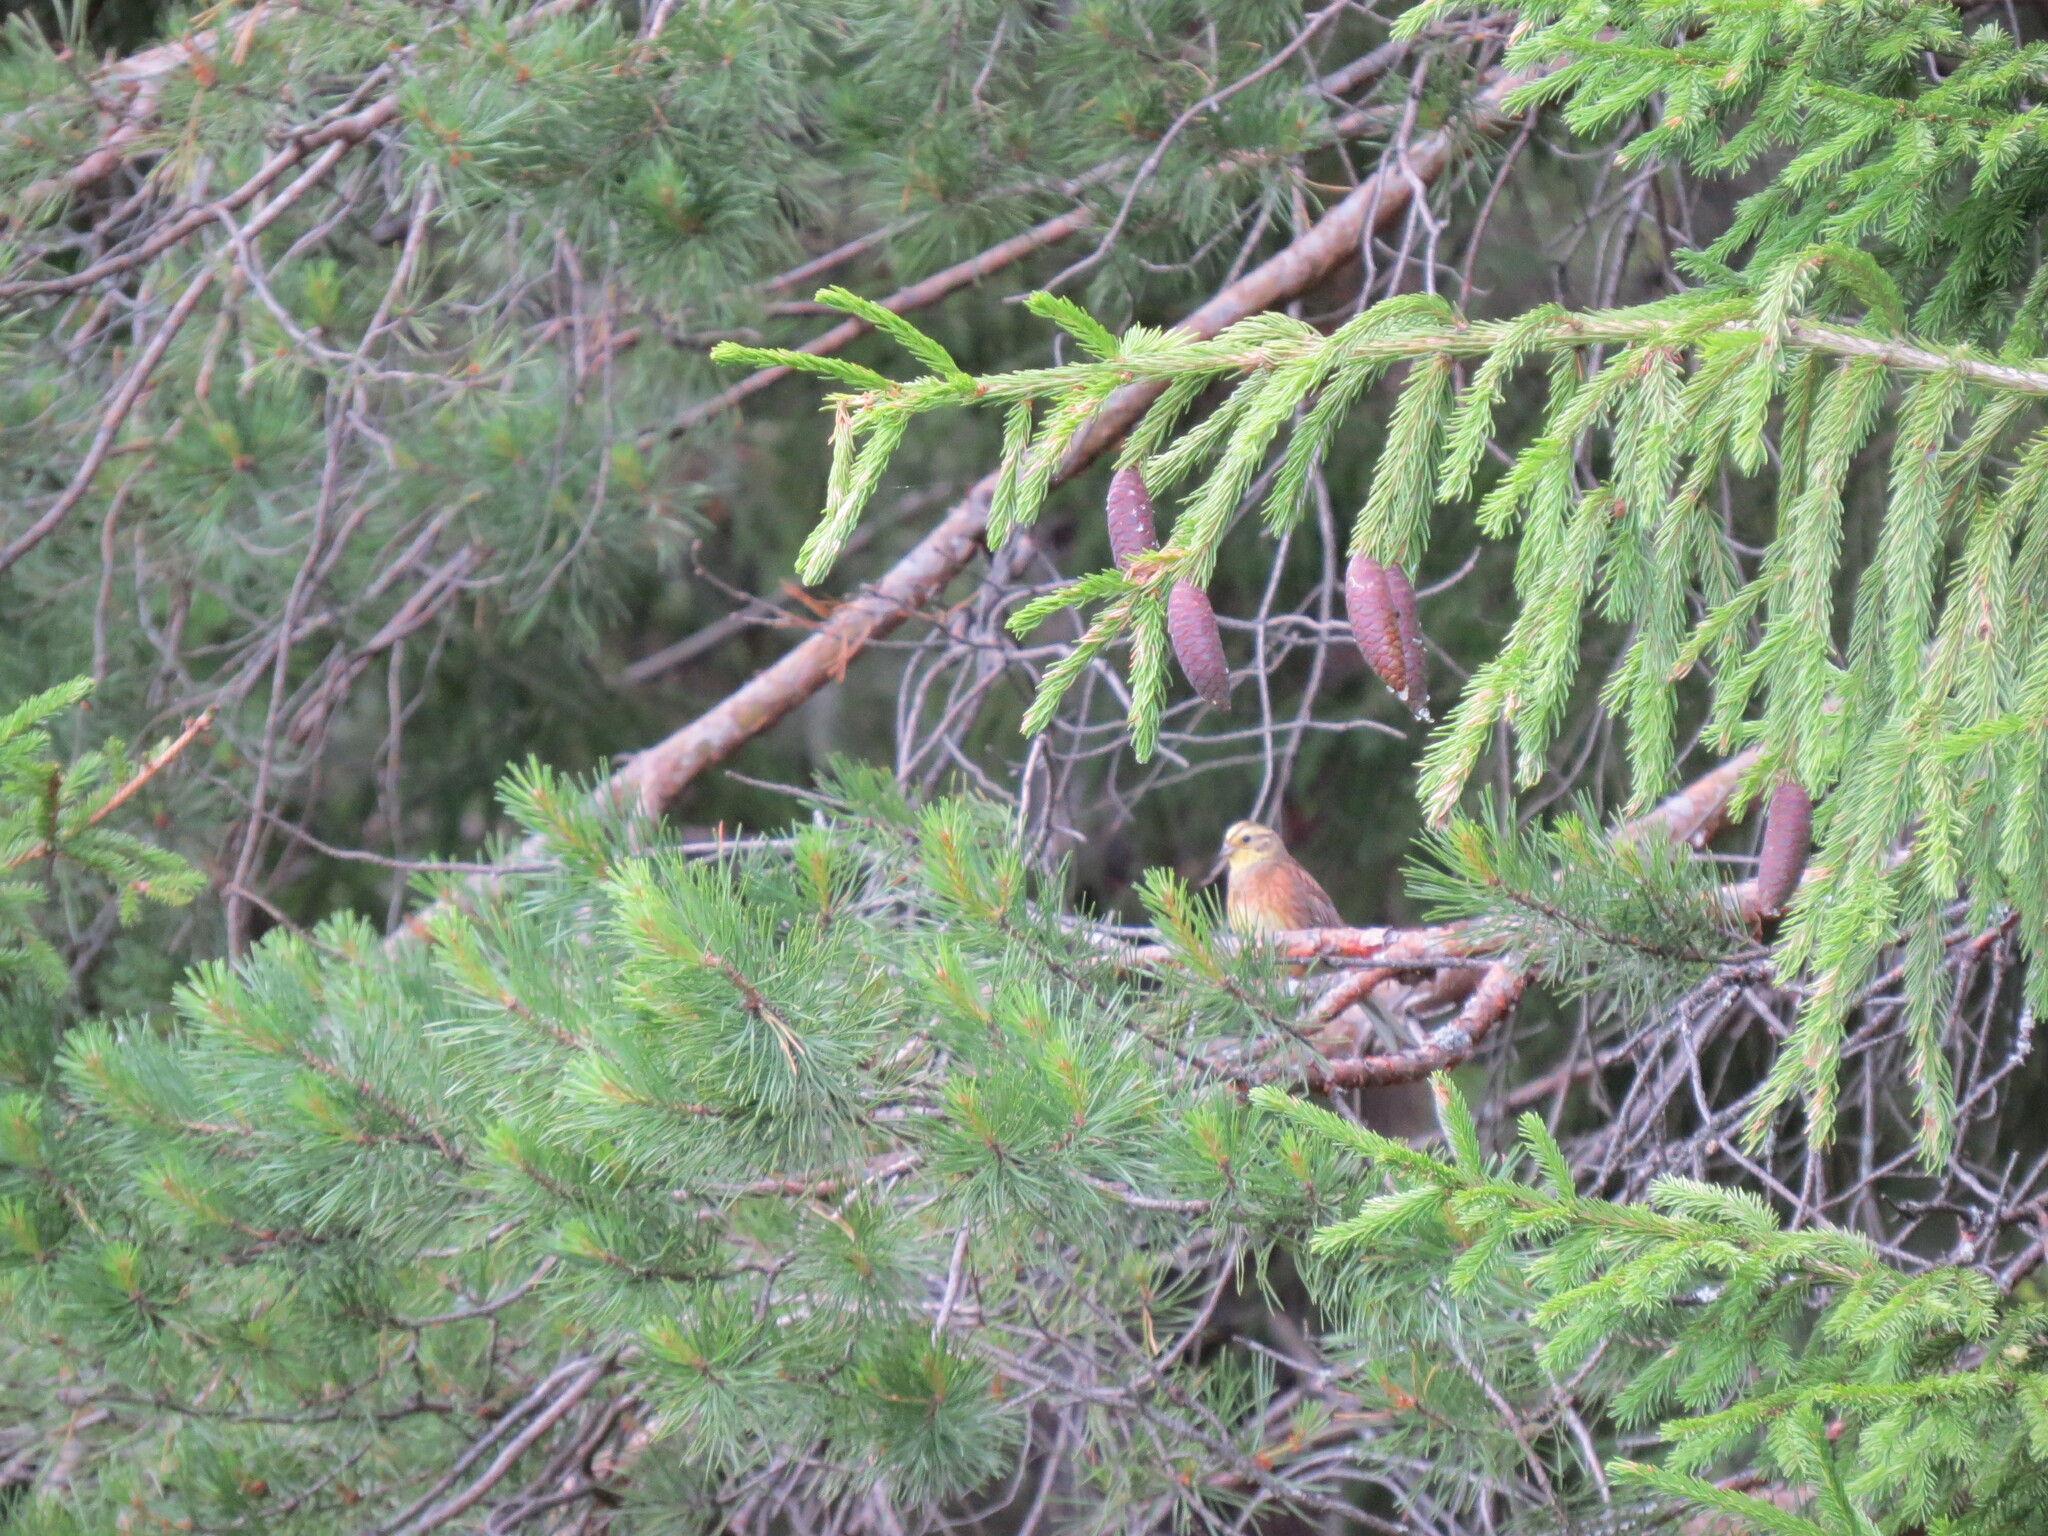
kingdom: Animalia
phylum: Chordata
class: Aves
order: Passeriformes
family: Emberizidae
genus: Emberiza
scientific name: Emberiza citrinella
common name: Yellowhammer
